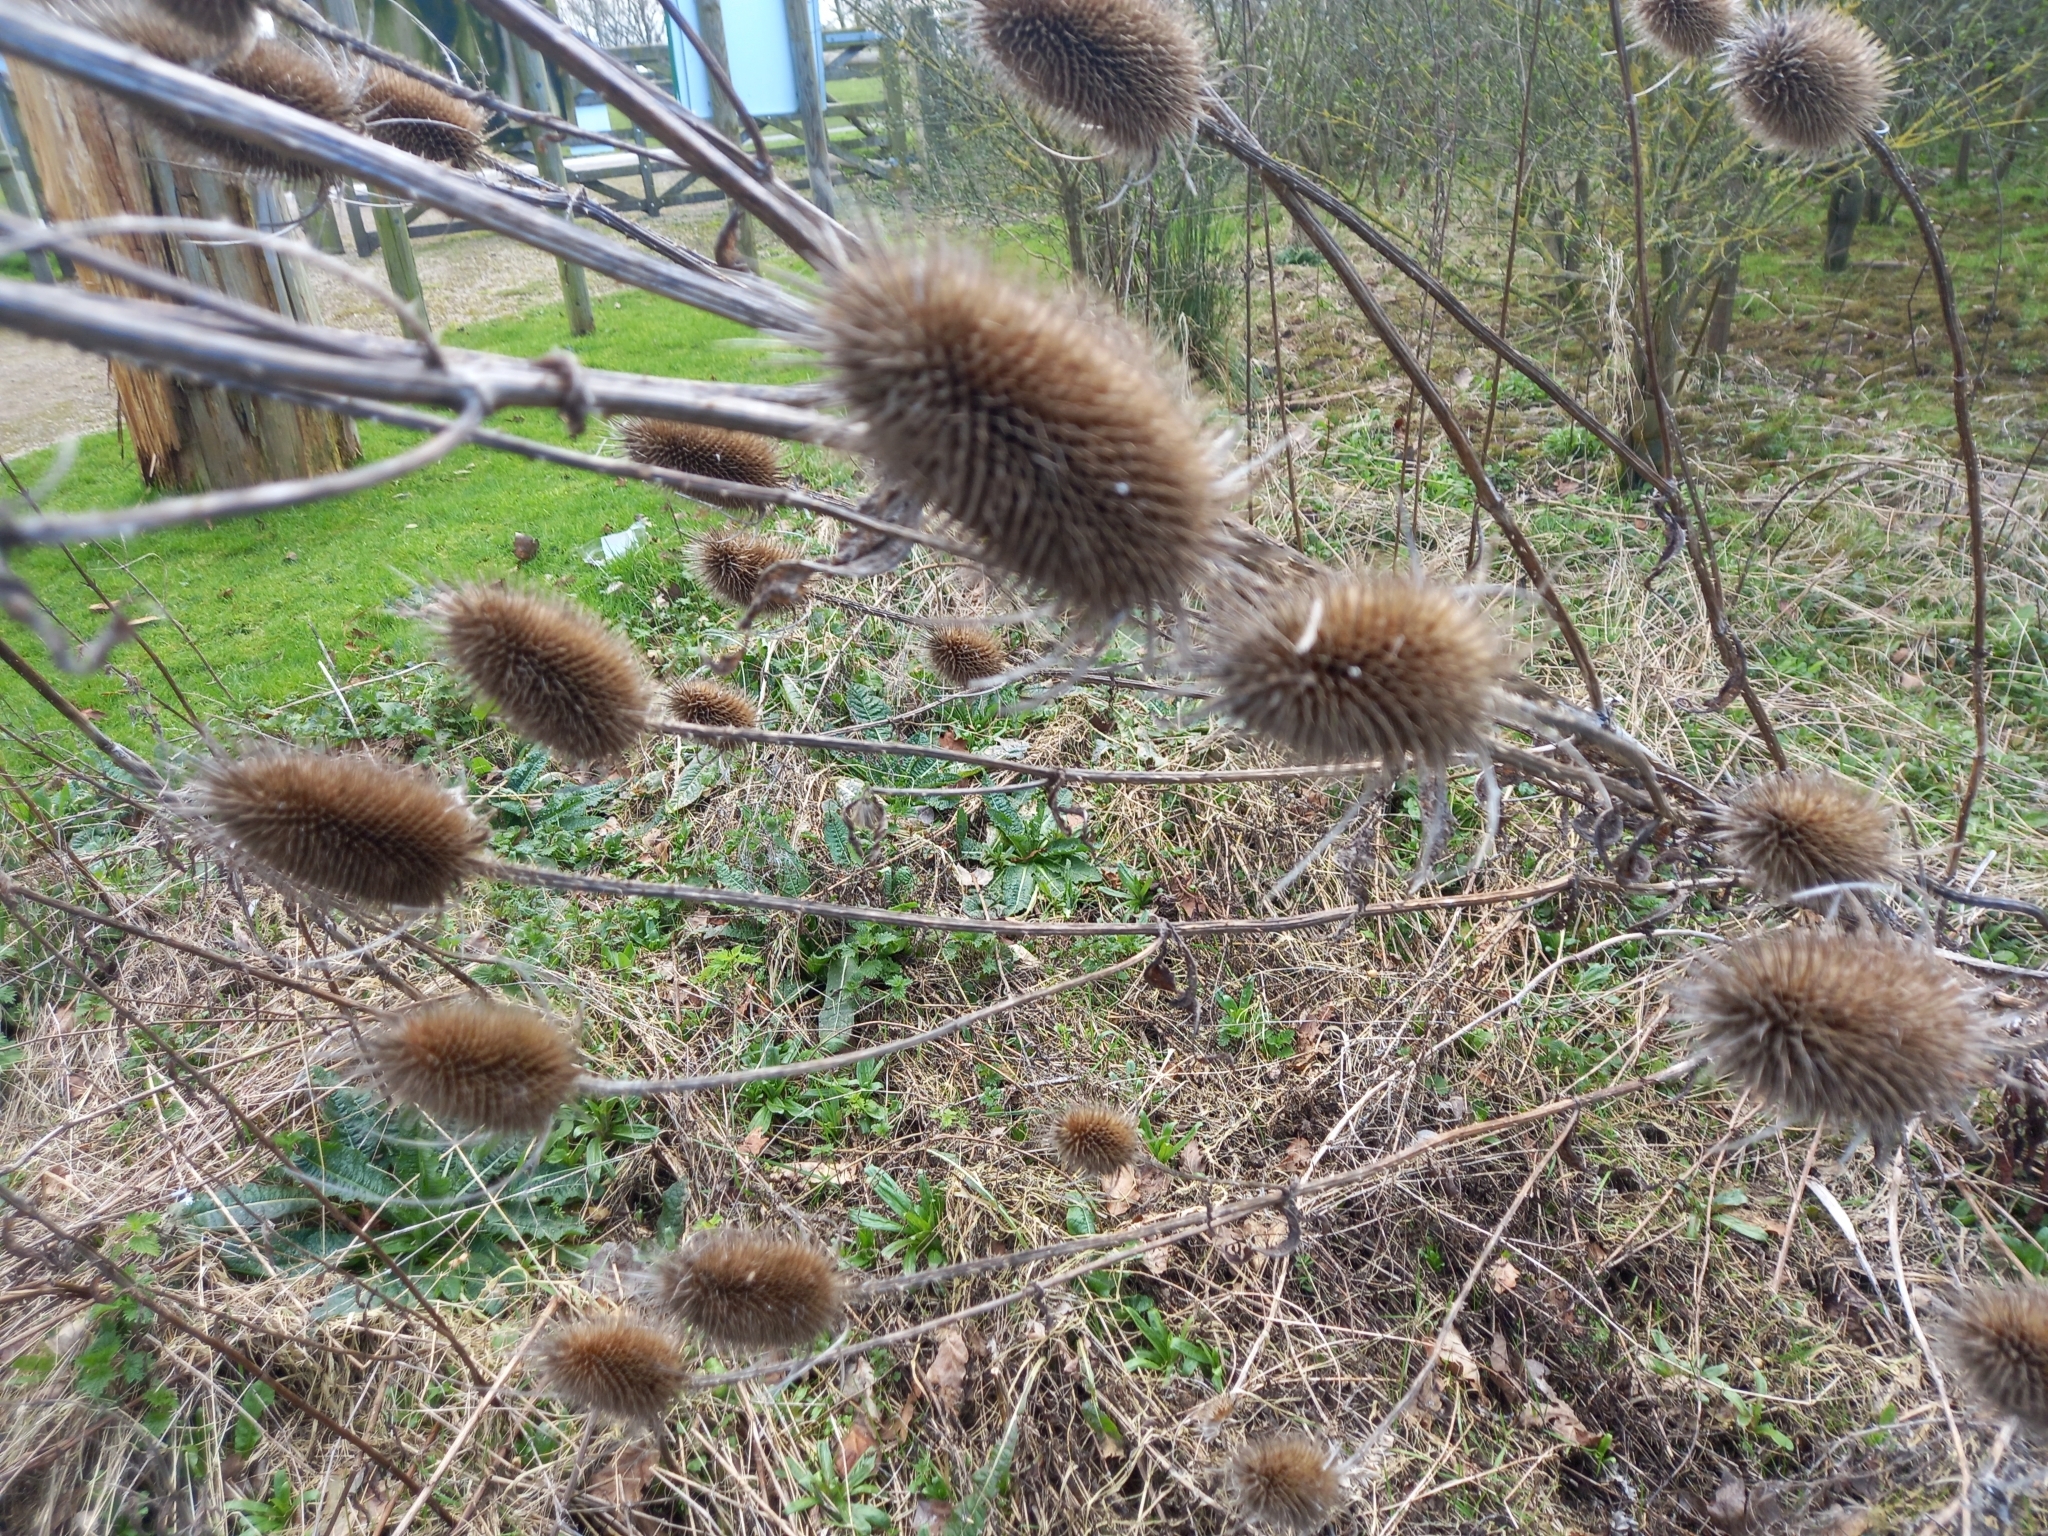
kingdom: Plantae
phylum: Tracheophyta
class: Magnoliopsida
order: Dipsacales
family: Caprifoliaceae
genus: Dipsacus
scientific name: Dipsacus fullonum
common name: Teasel
